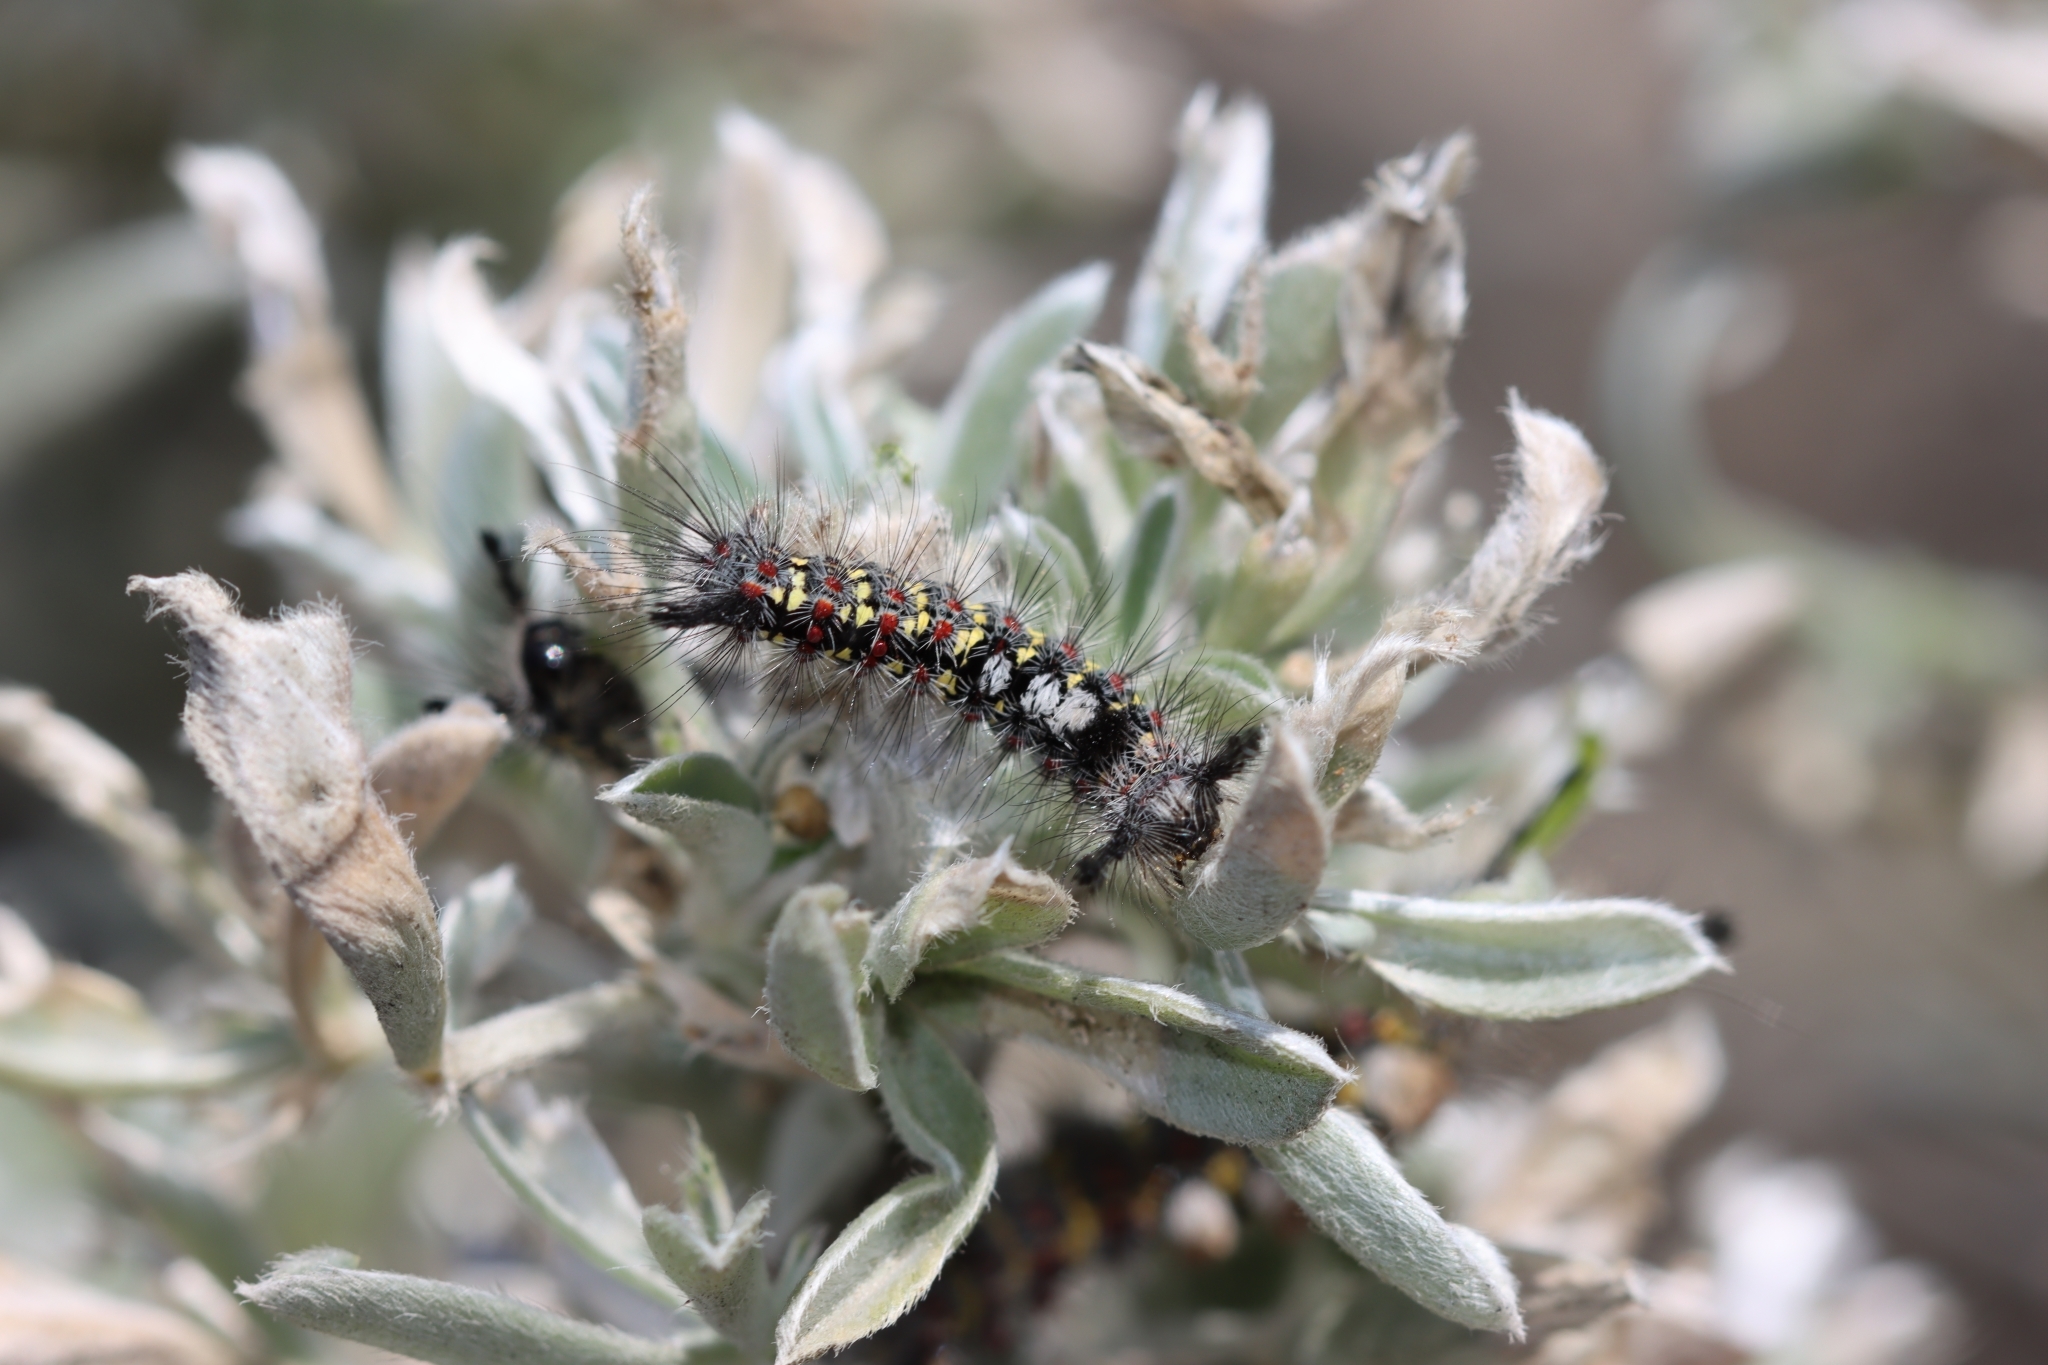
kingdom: Animalia
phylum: Arthropoda
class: Insecta
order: Lepidoptera
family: Erebidae
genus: Orgyia
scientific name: Orgyia vetusta
